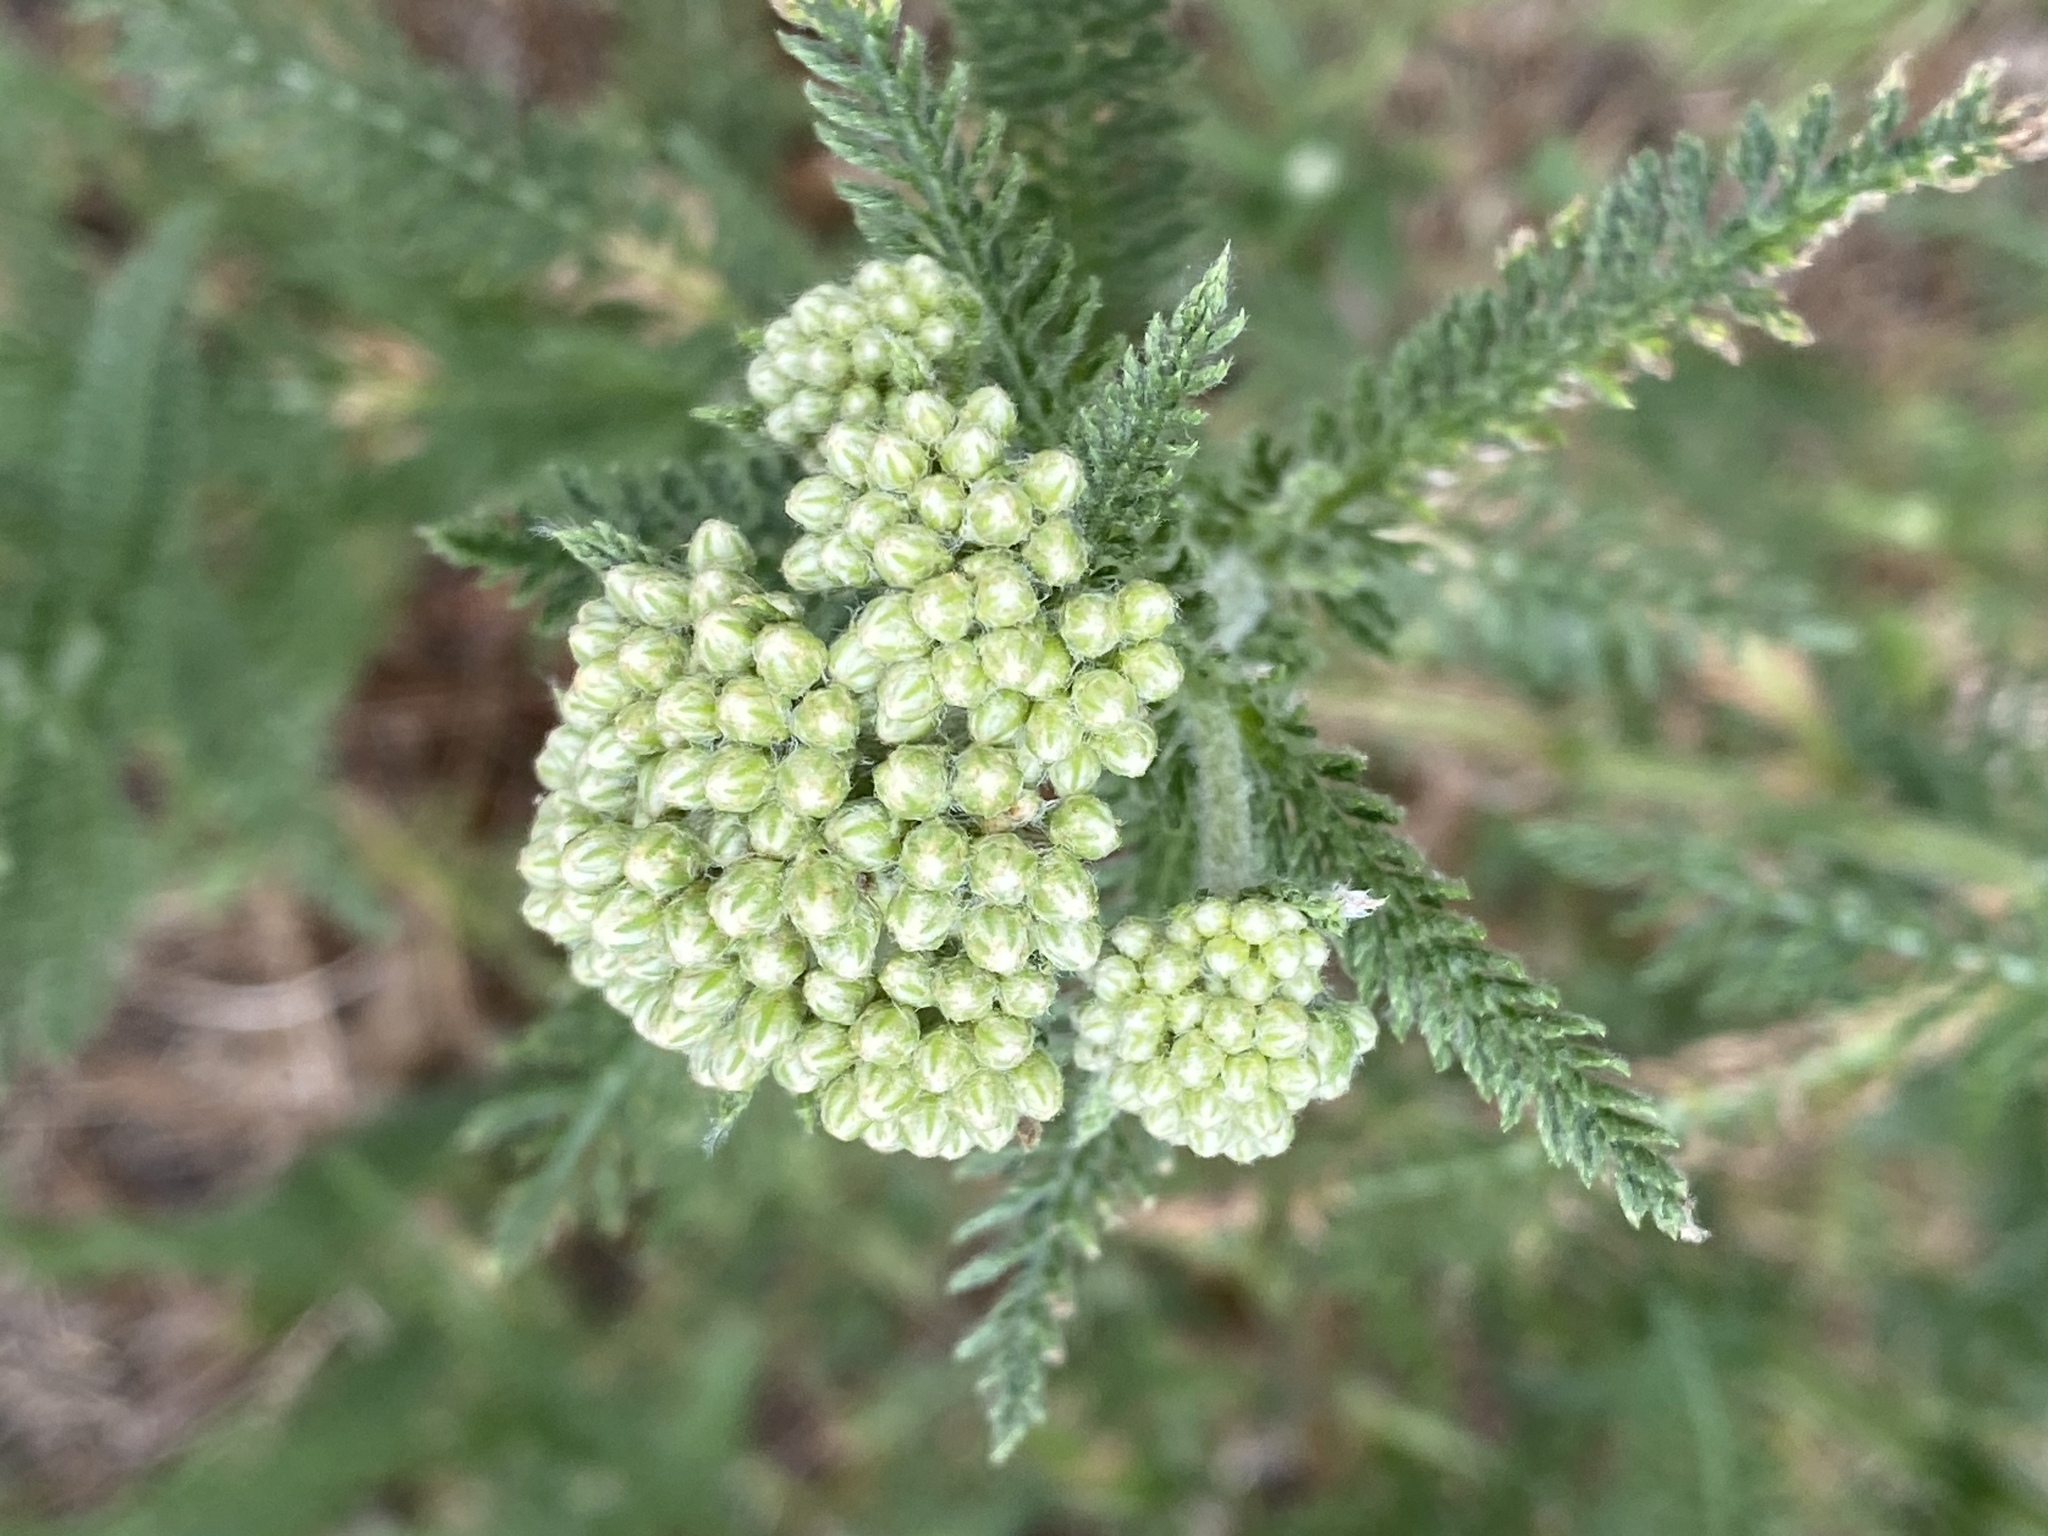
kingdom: Plantae
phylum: Tracheophyta
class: Magnoliopsida
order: Asterales
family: Asteraceae
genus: Achillea
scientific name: Achillea millefolium
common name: Yarrow
